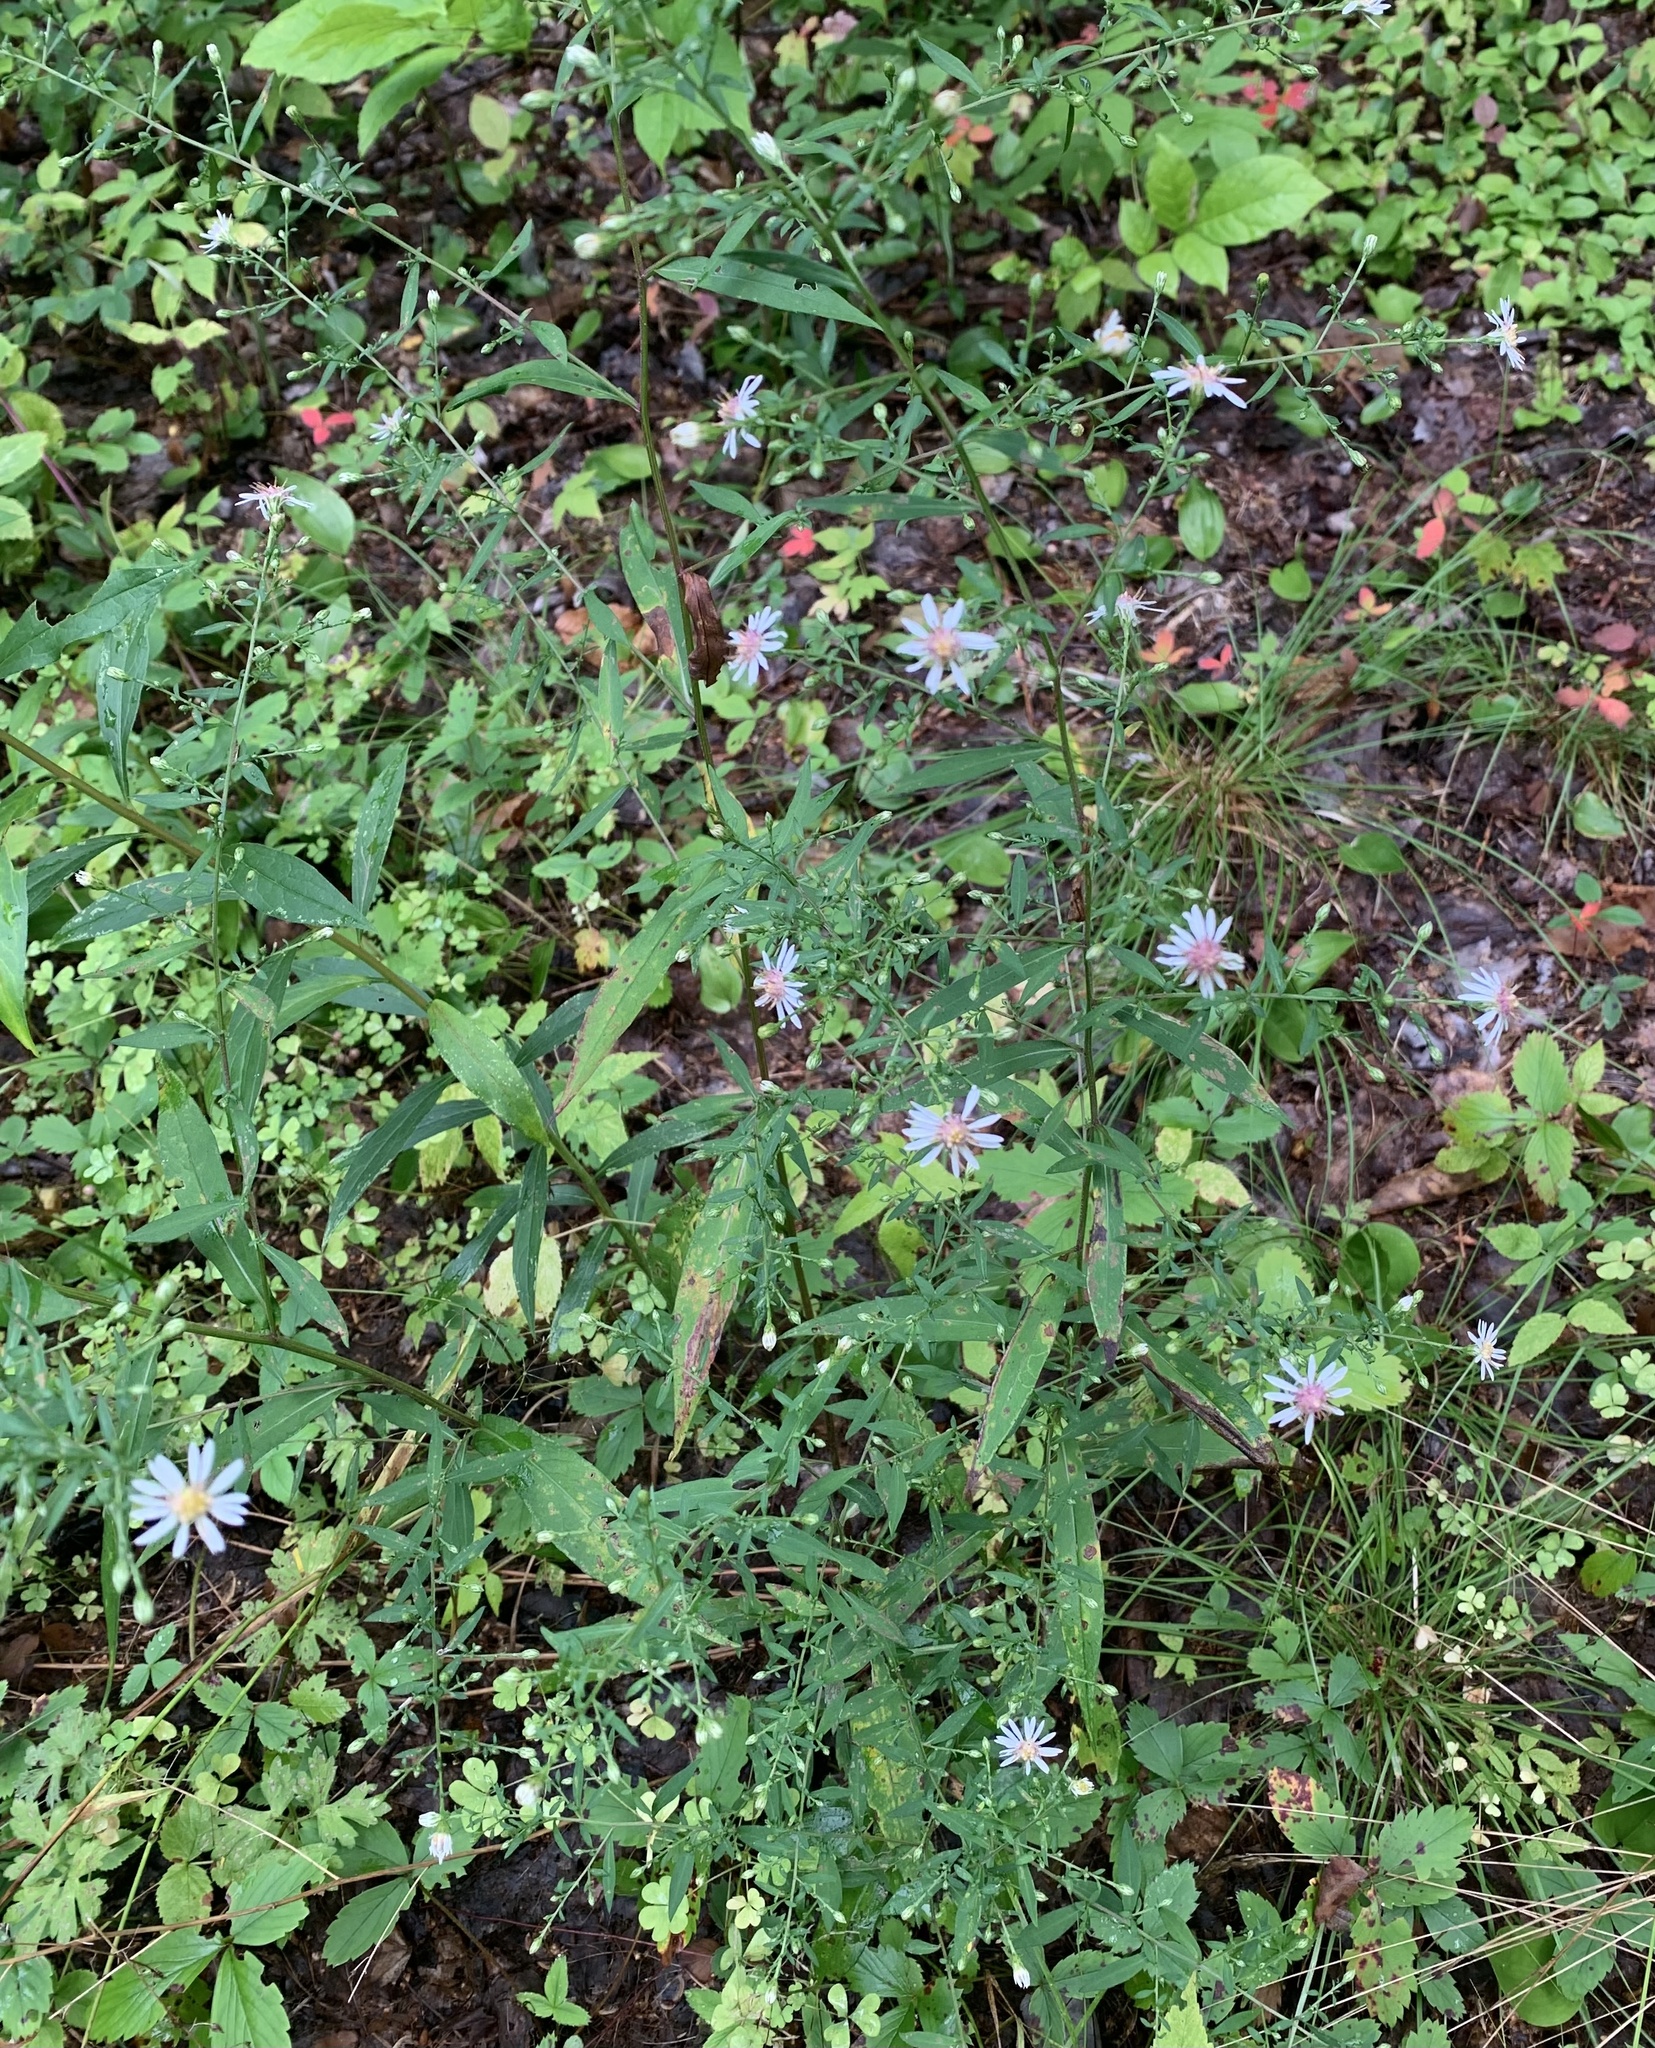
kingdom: Plantae
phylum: Tracheophyta
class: Magnoliopsida
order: Asterales
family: Asteraceae
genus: Symphyotrichum
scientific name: Symphyotrichum lateriflorum
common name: Calico aster
